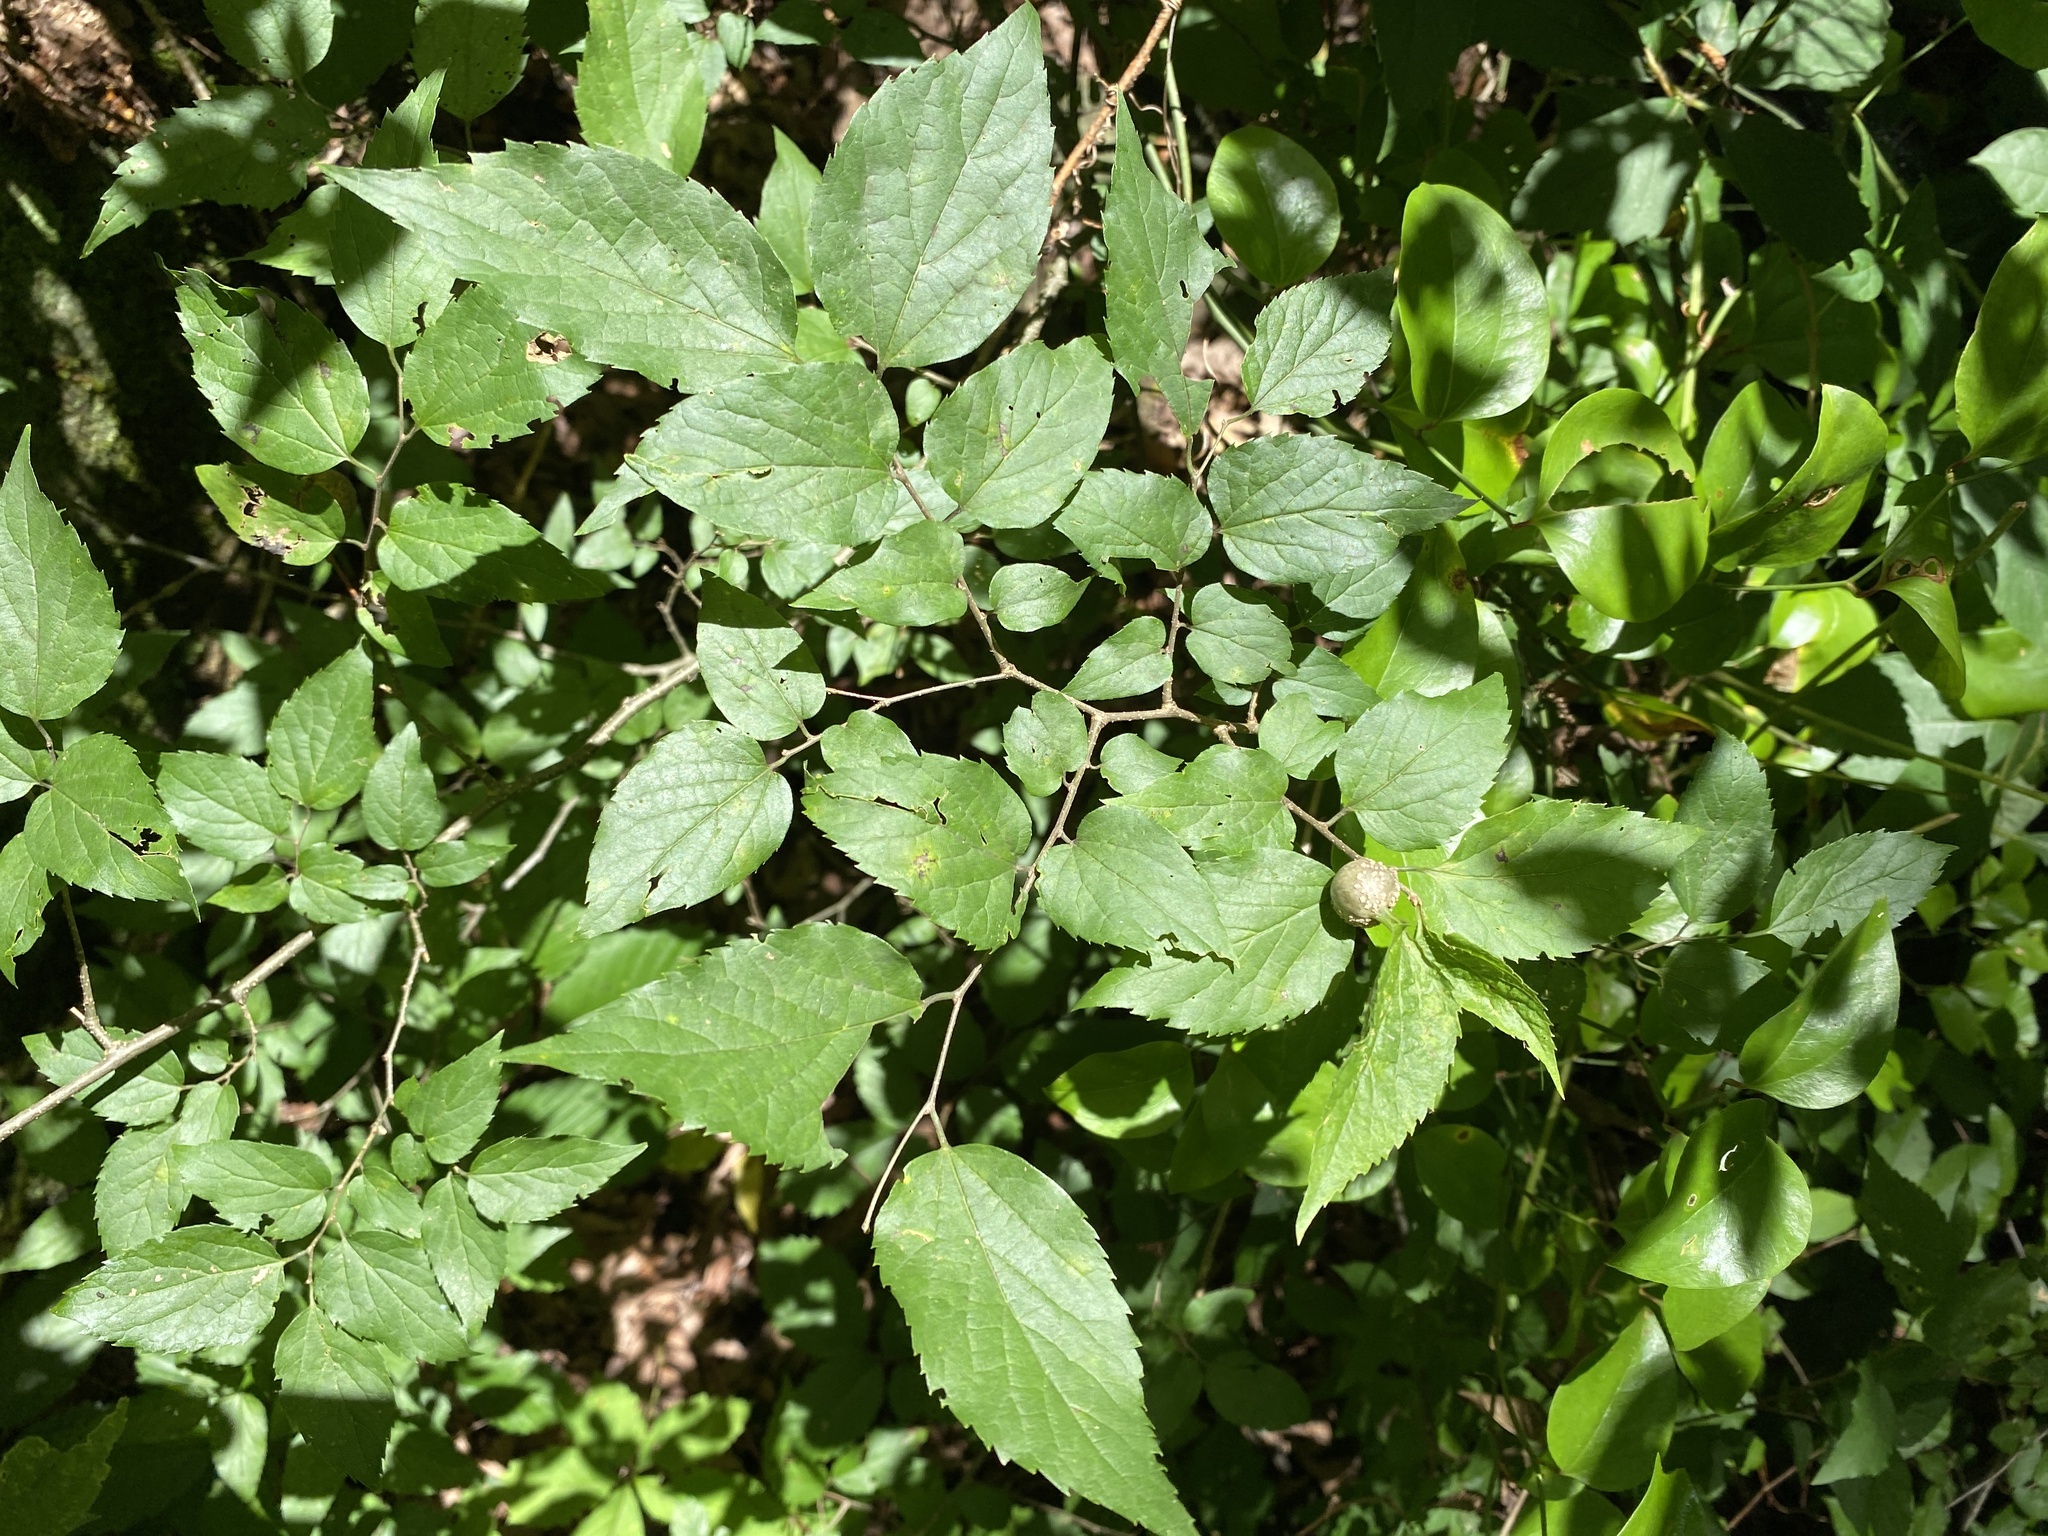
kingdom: Animalia
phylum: Arthropoda
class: Insecta
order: Hemiptera
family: Aphalaridae
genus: Pachypsylla
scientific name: Pachypsylla venusta
